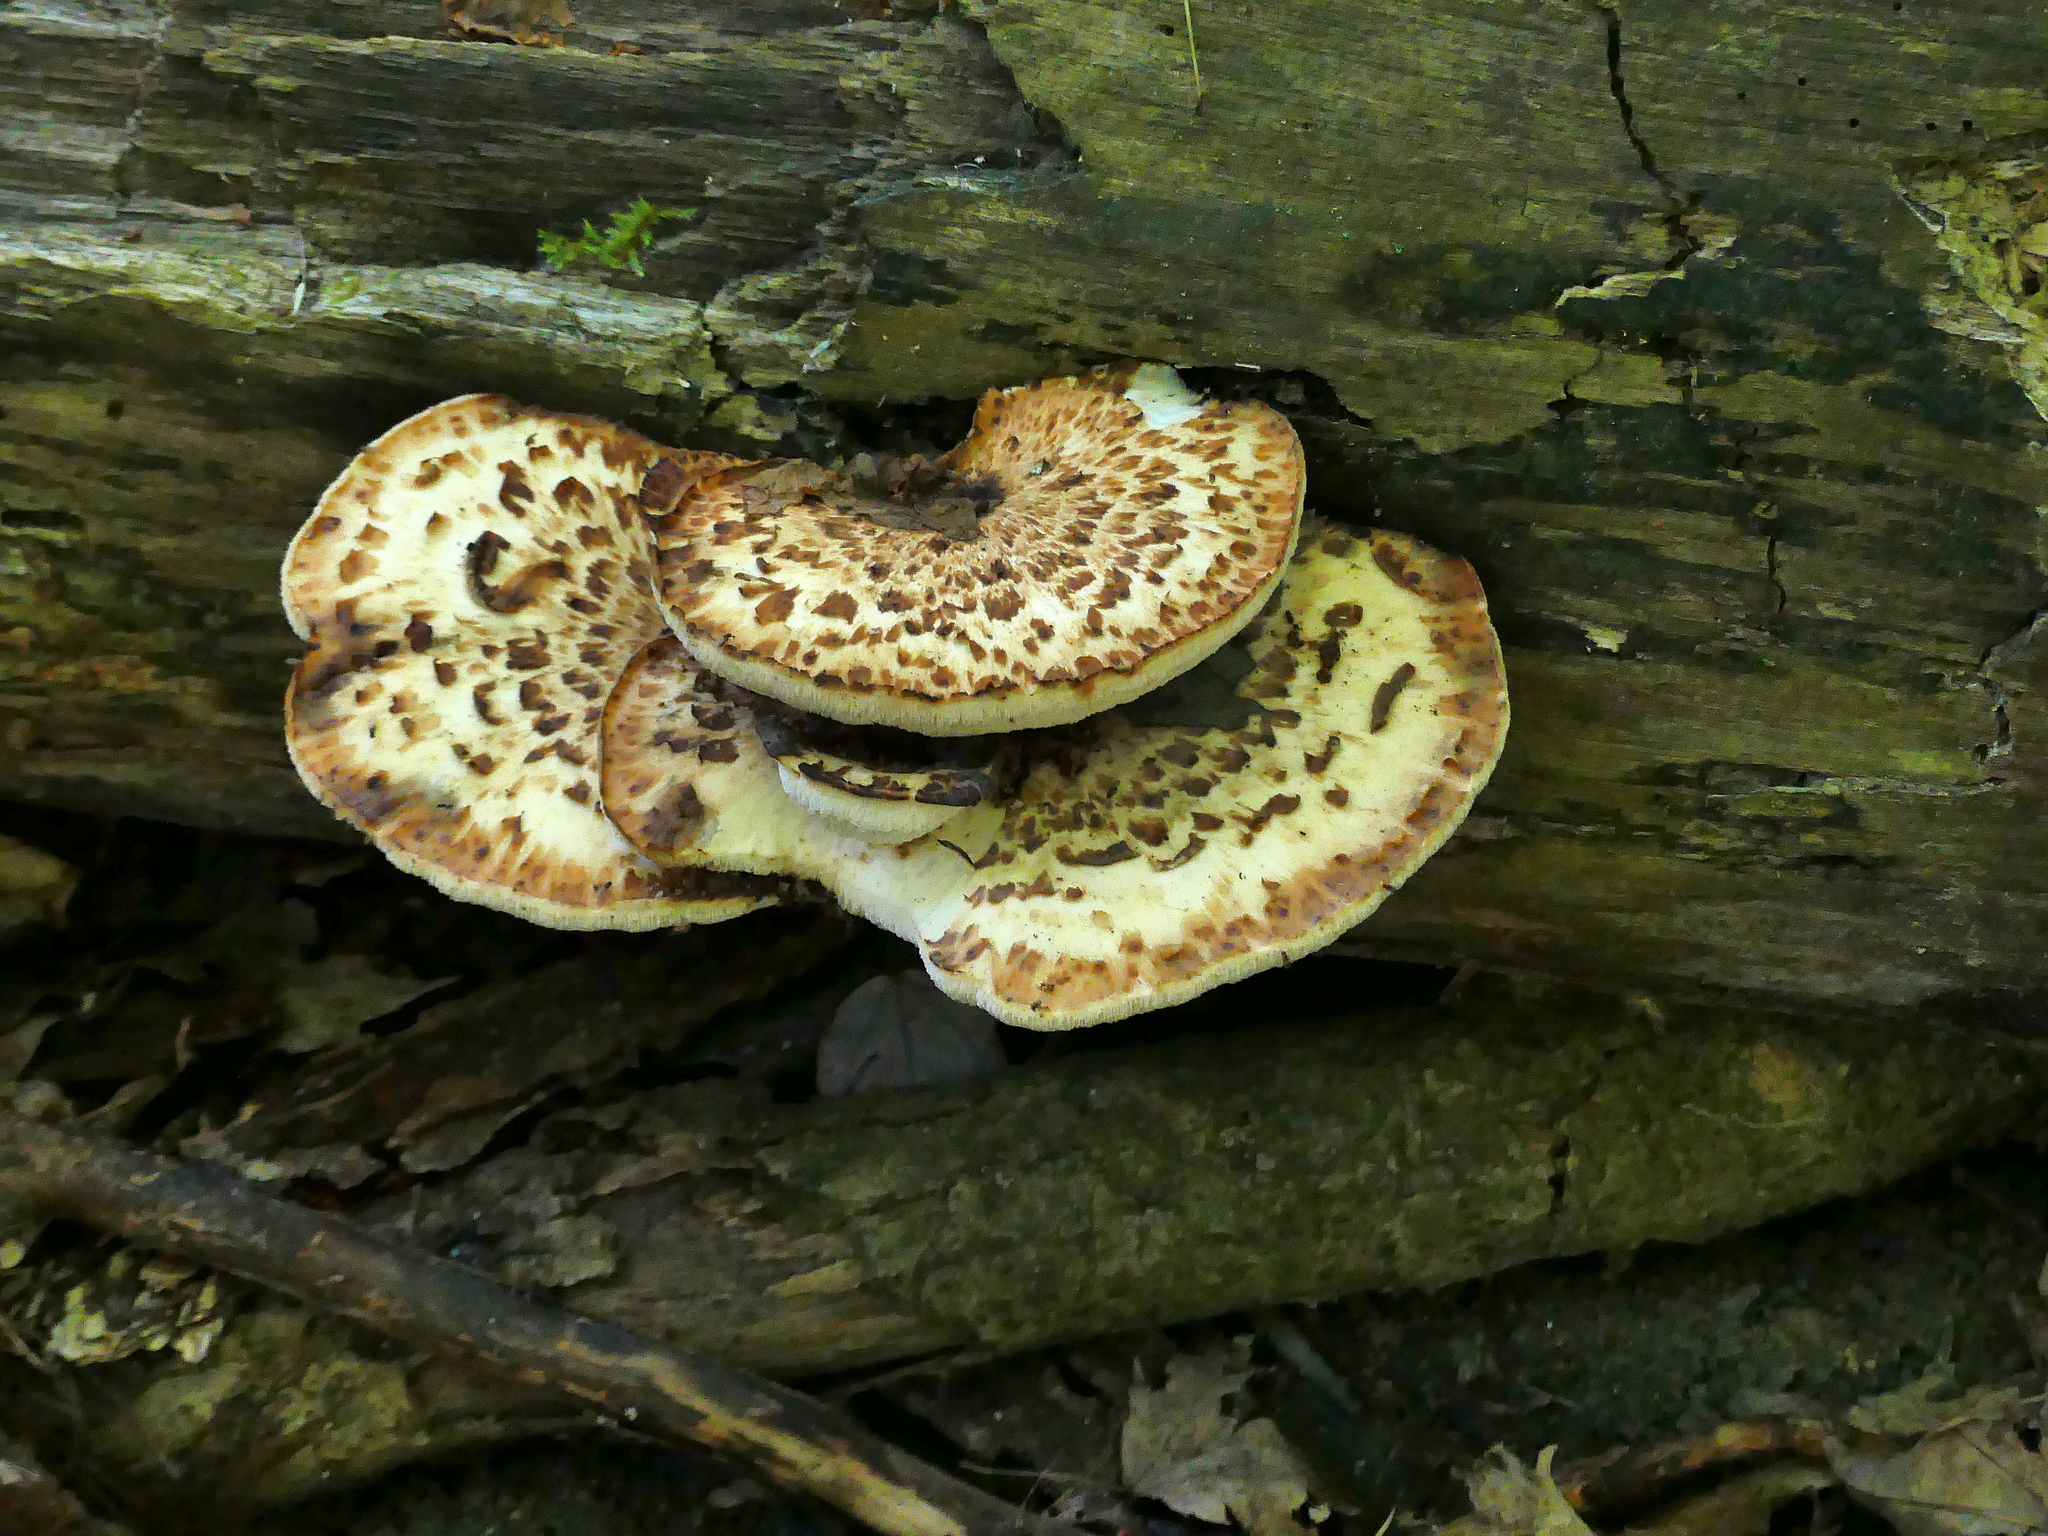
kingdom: Fungi
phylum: Basidiomycota
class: Agaricomycetes
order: Polyporales
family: Polyporaceae
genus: Cerioporus
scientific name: Cerioporus squamosus
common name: Dryad's saddle
